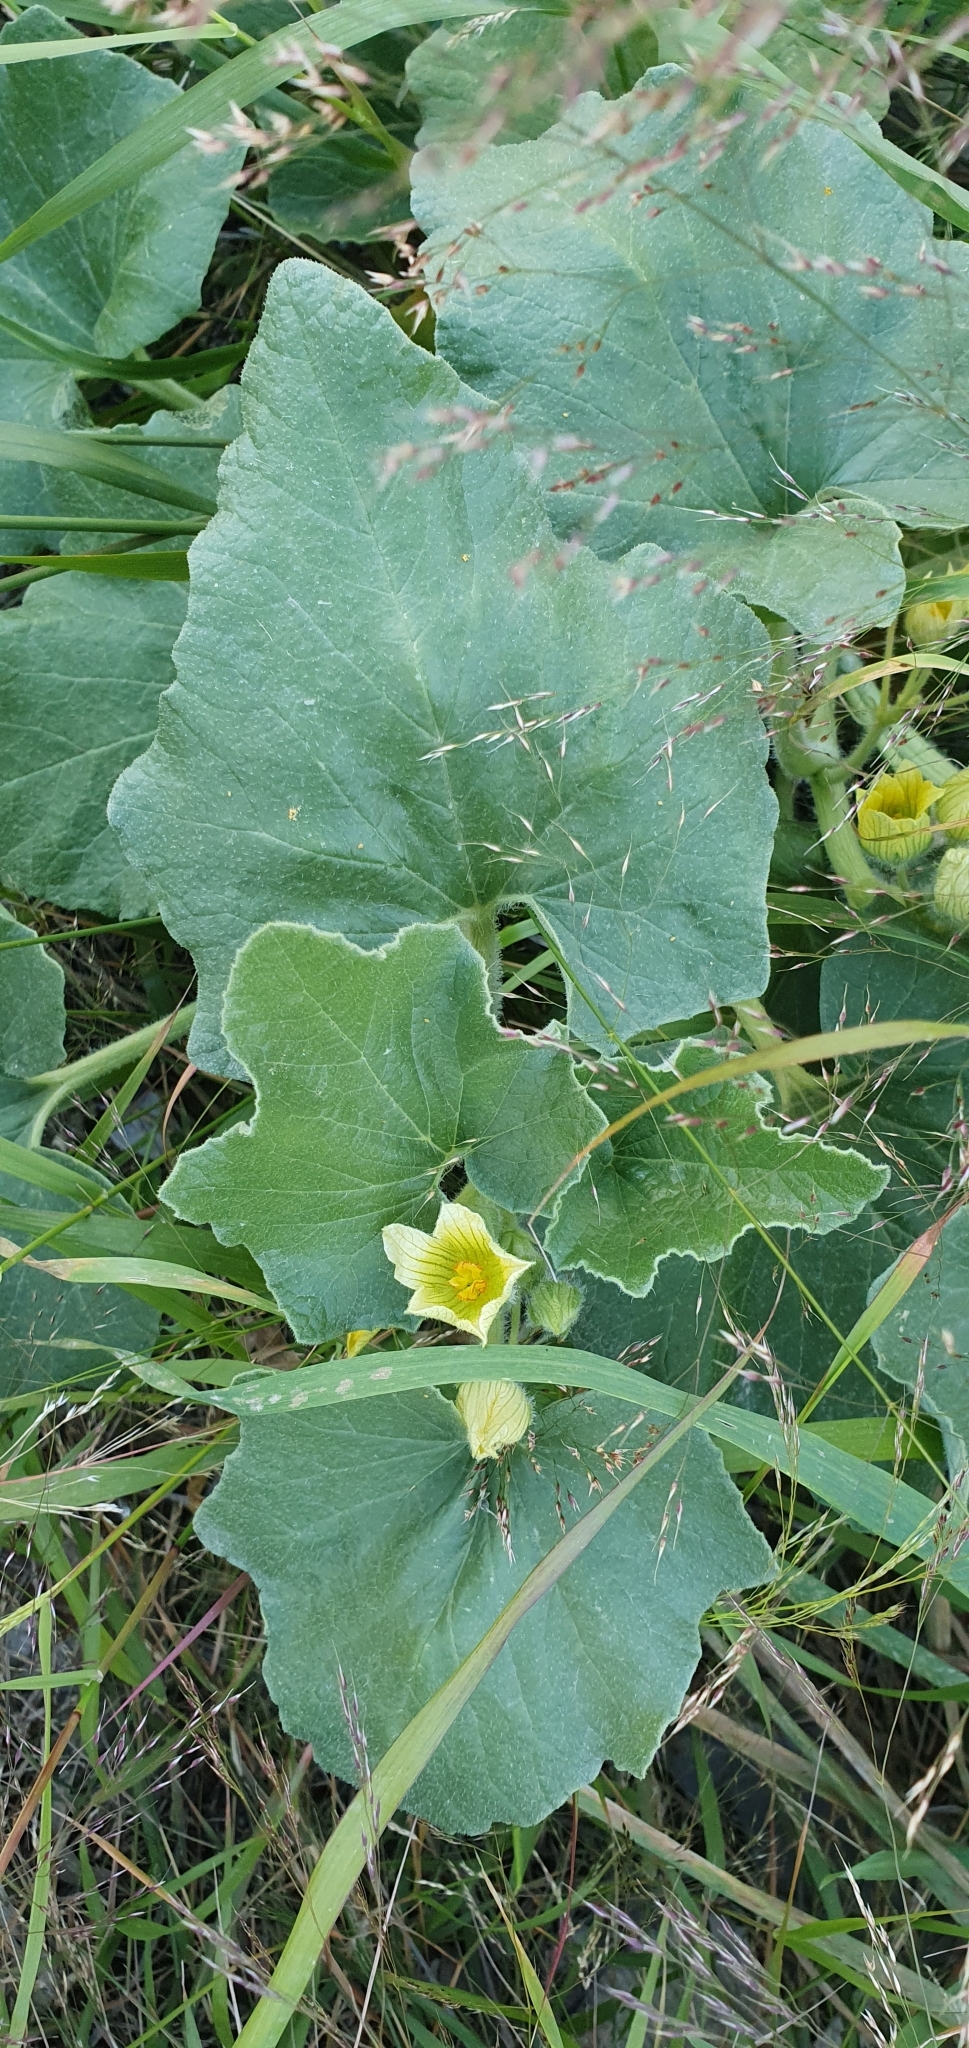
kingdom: Plantae
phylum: Tracheophyta
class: Magnoliopsida
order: Cucurbitales
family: Cucurbitaceae
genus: Ecballium
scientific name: Ecballium elaterium
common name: Squirting cucumber
